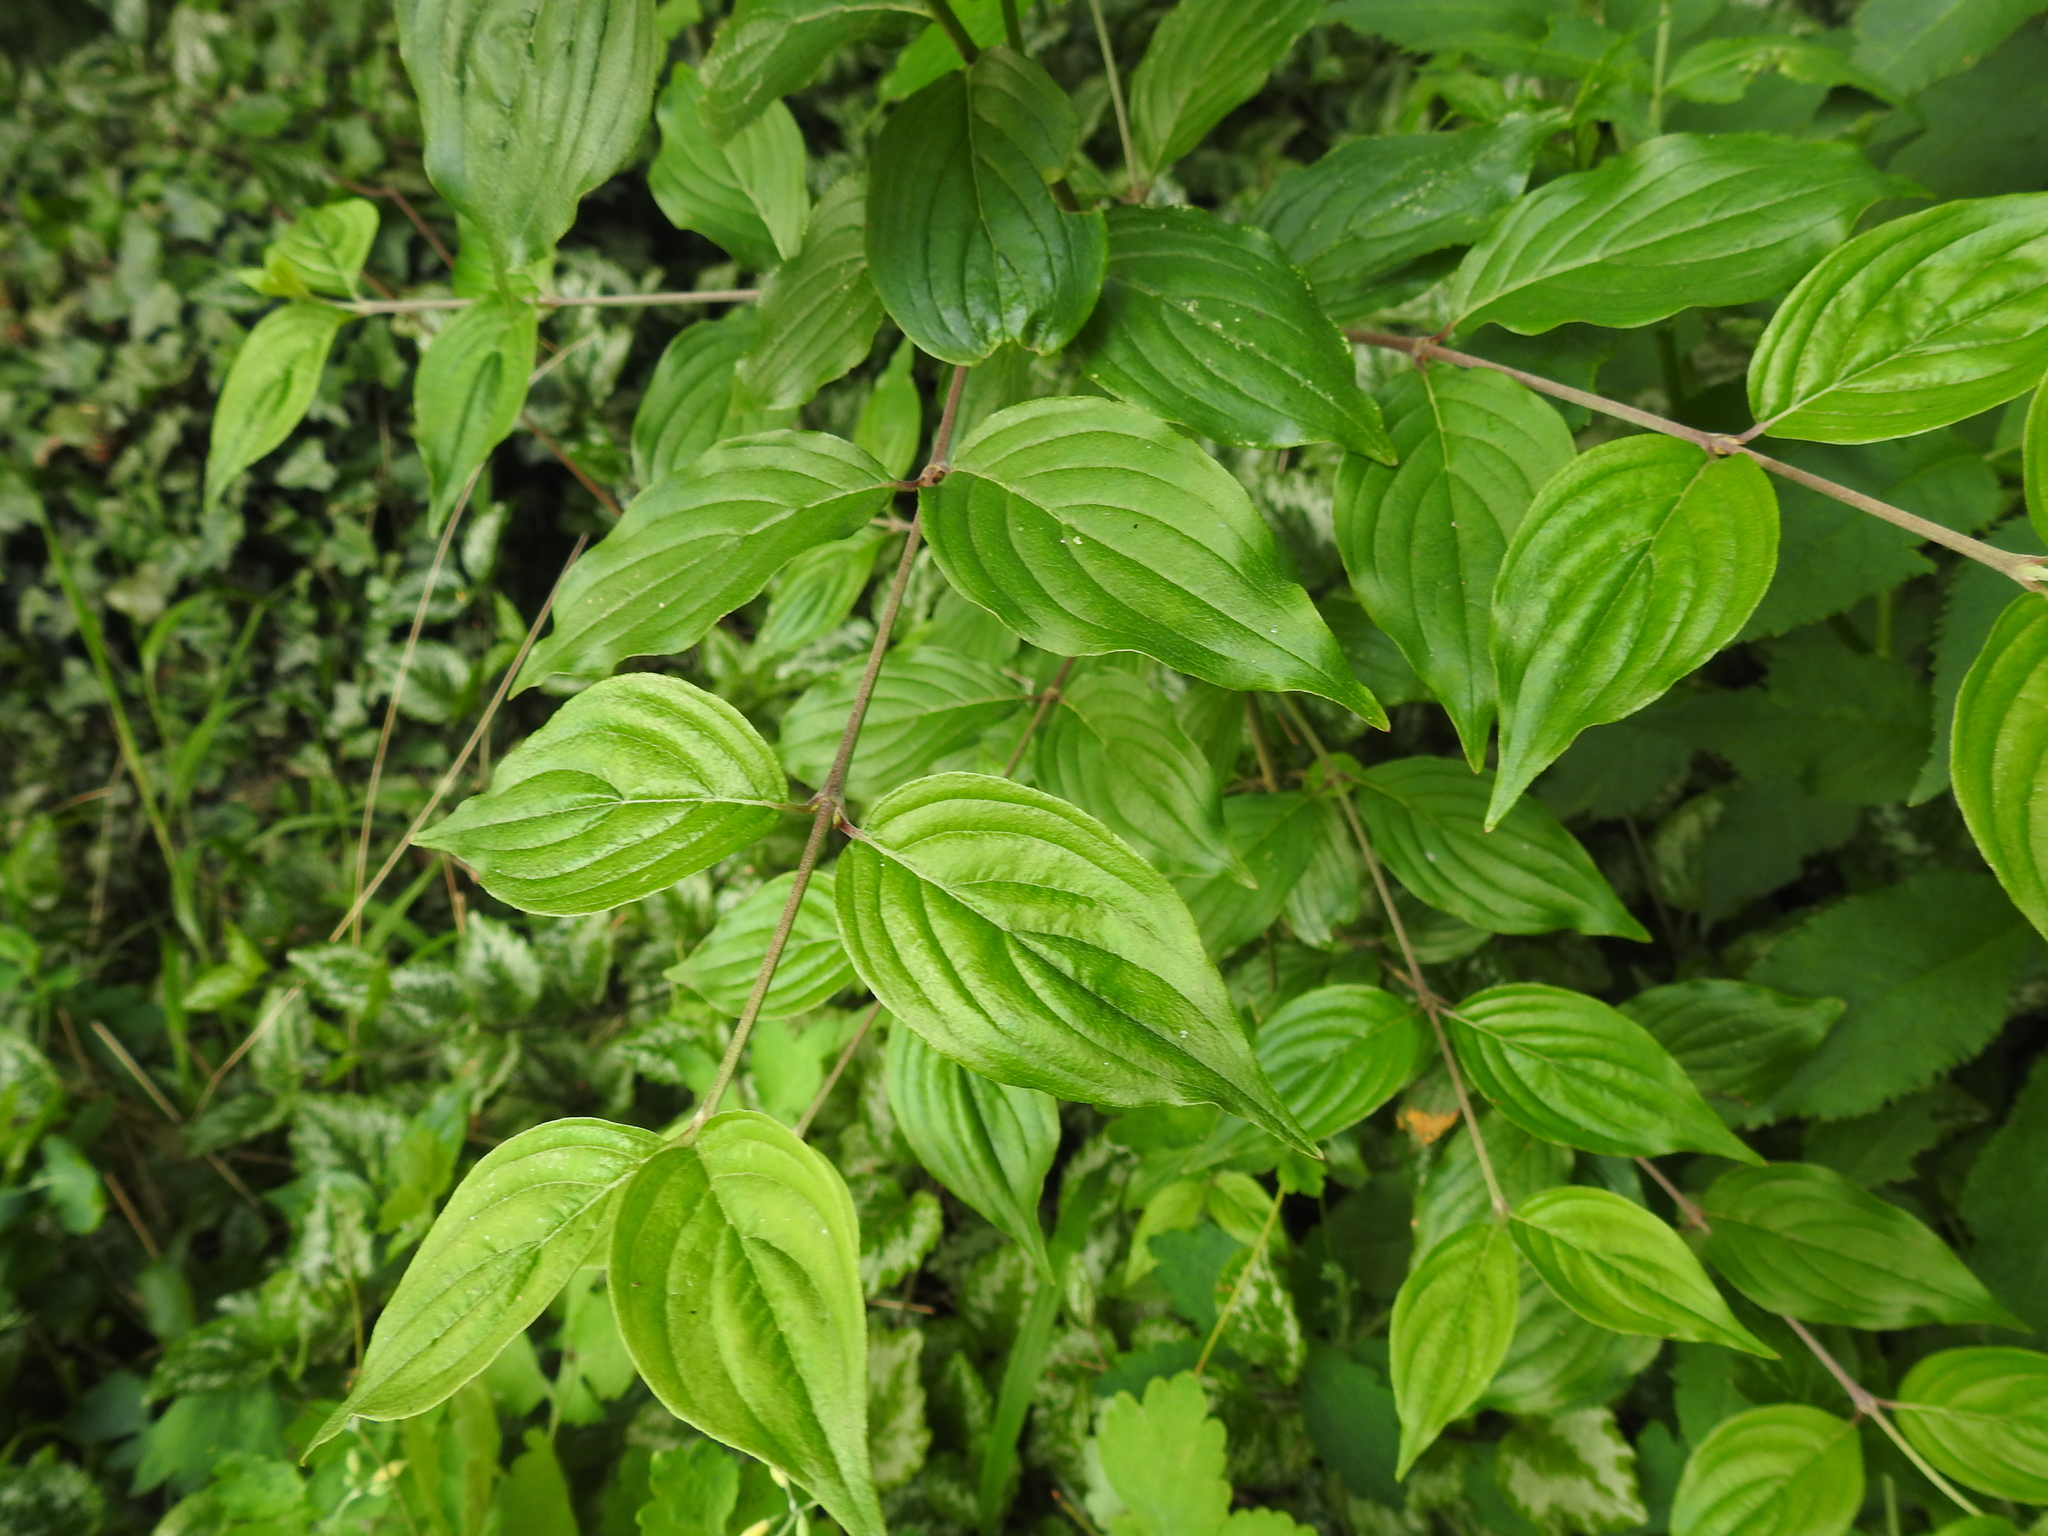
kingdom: Plantae
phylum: Tracheophyta
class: Magnoliopsida
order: Cornales
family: Cornaceae
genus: Cornus
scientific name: Cornus mas
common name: Cornelian-cherry
